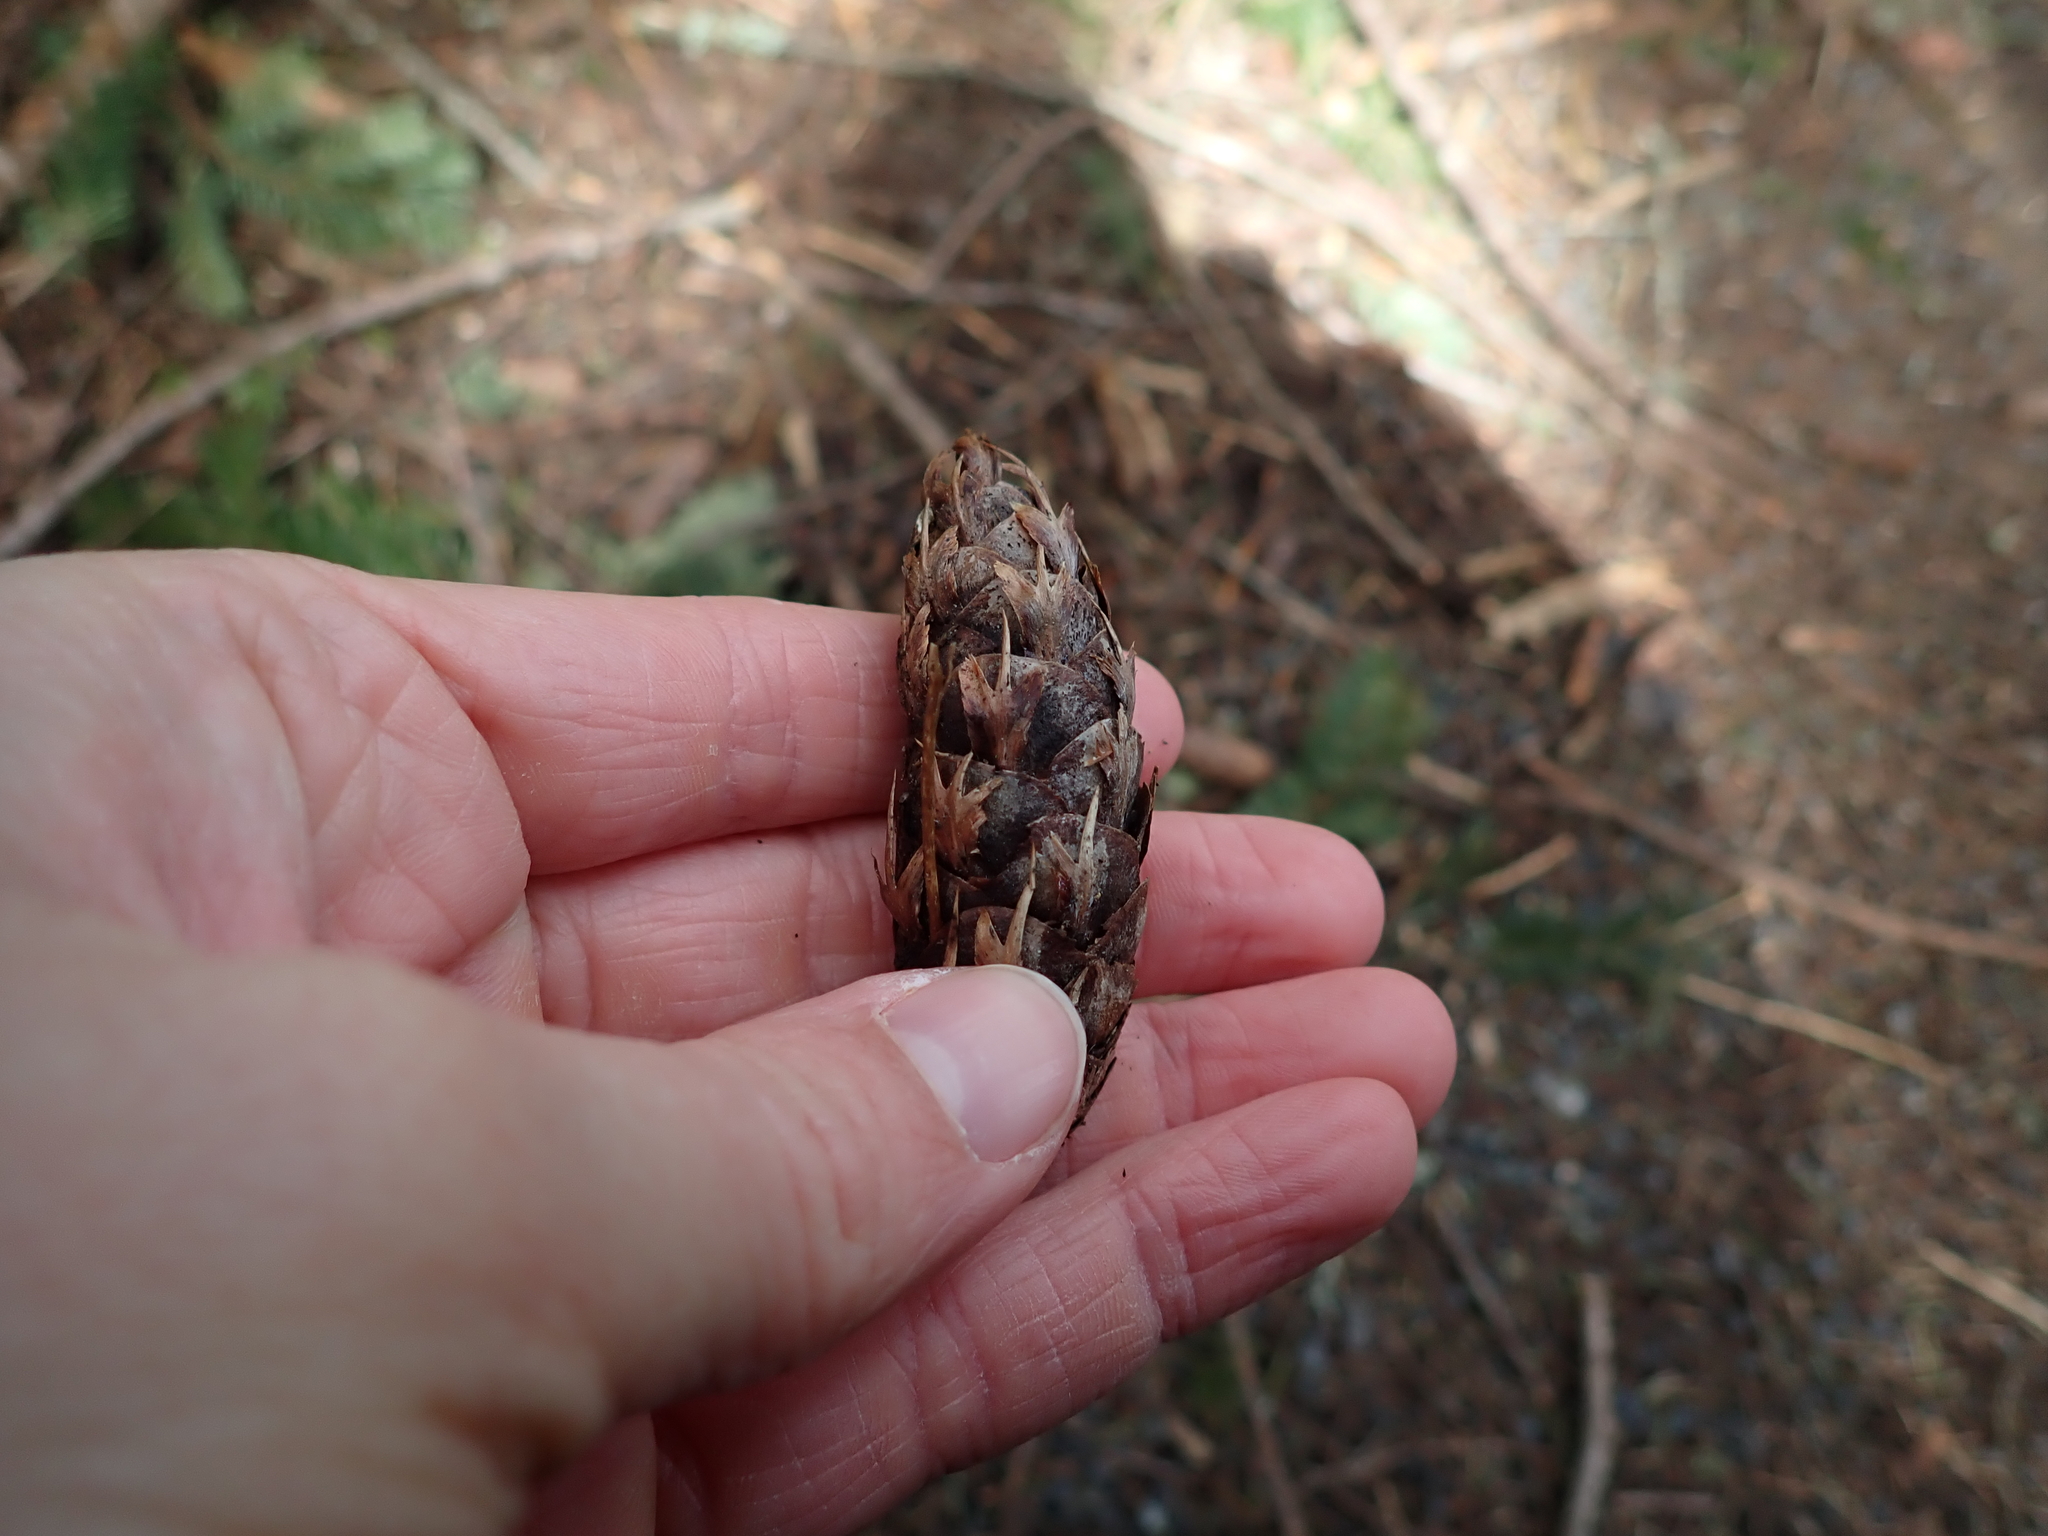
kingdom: Plantae
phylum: Tracheophyta
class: Pinopsida
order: Pinales
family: Pinaceae
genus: Pseudotsuga
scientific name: Pseudotsuga menziesii
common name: Douglas fir
